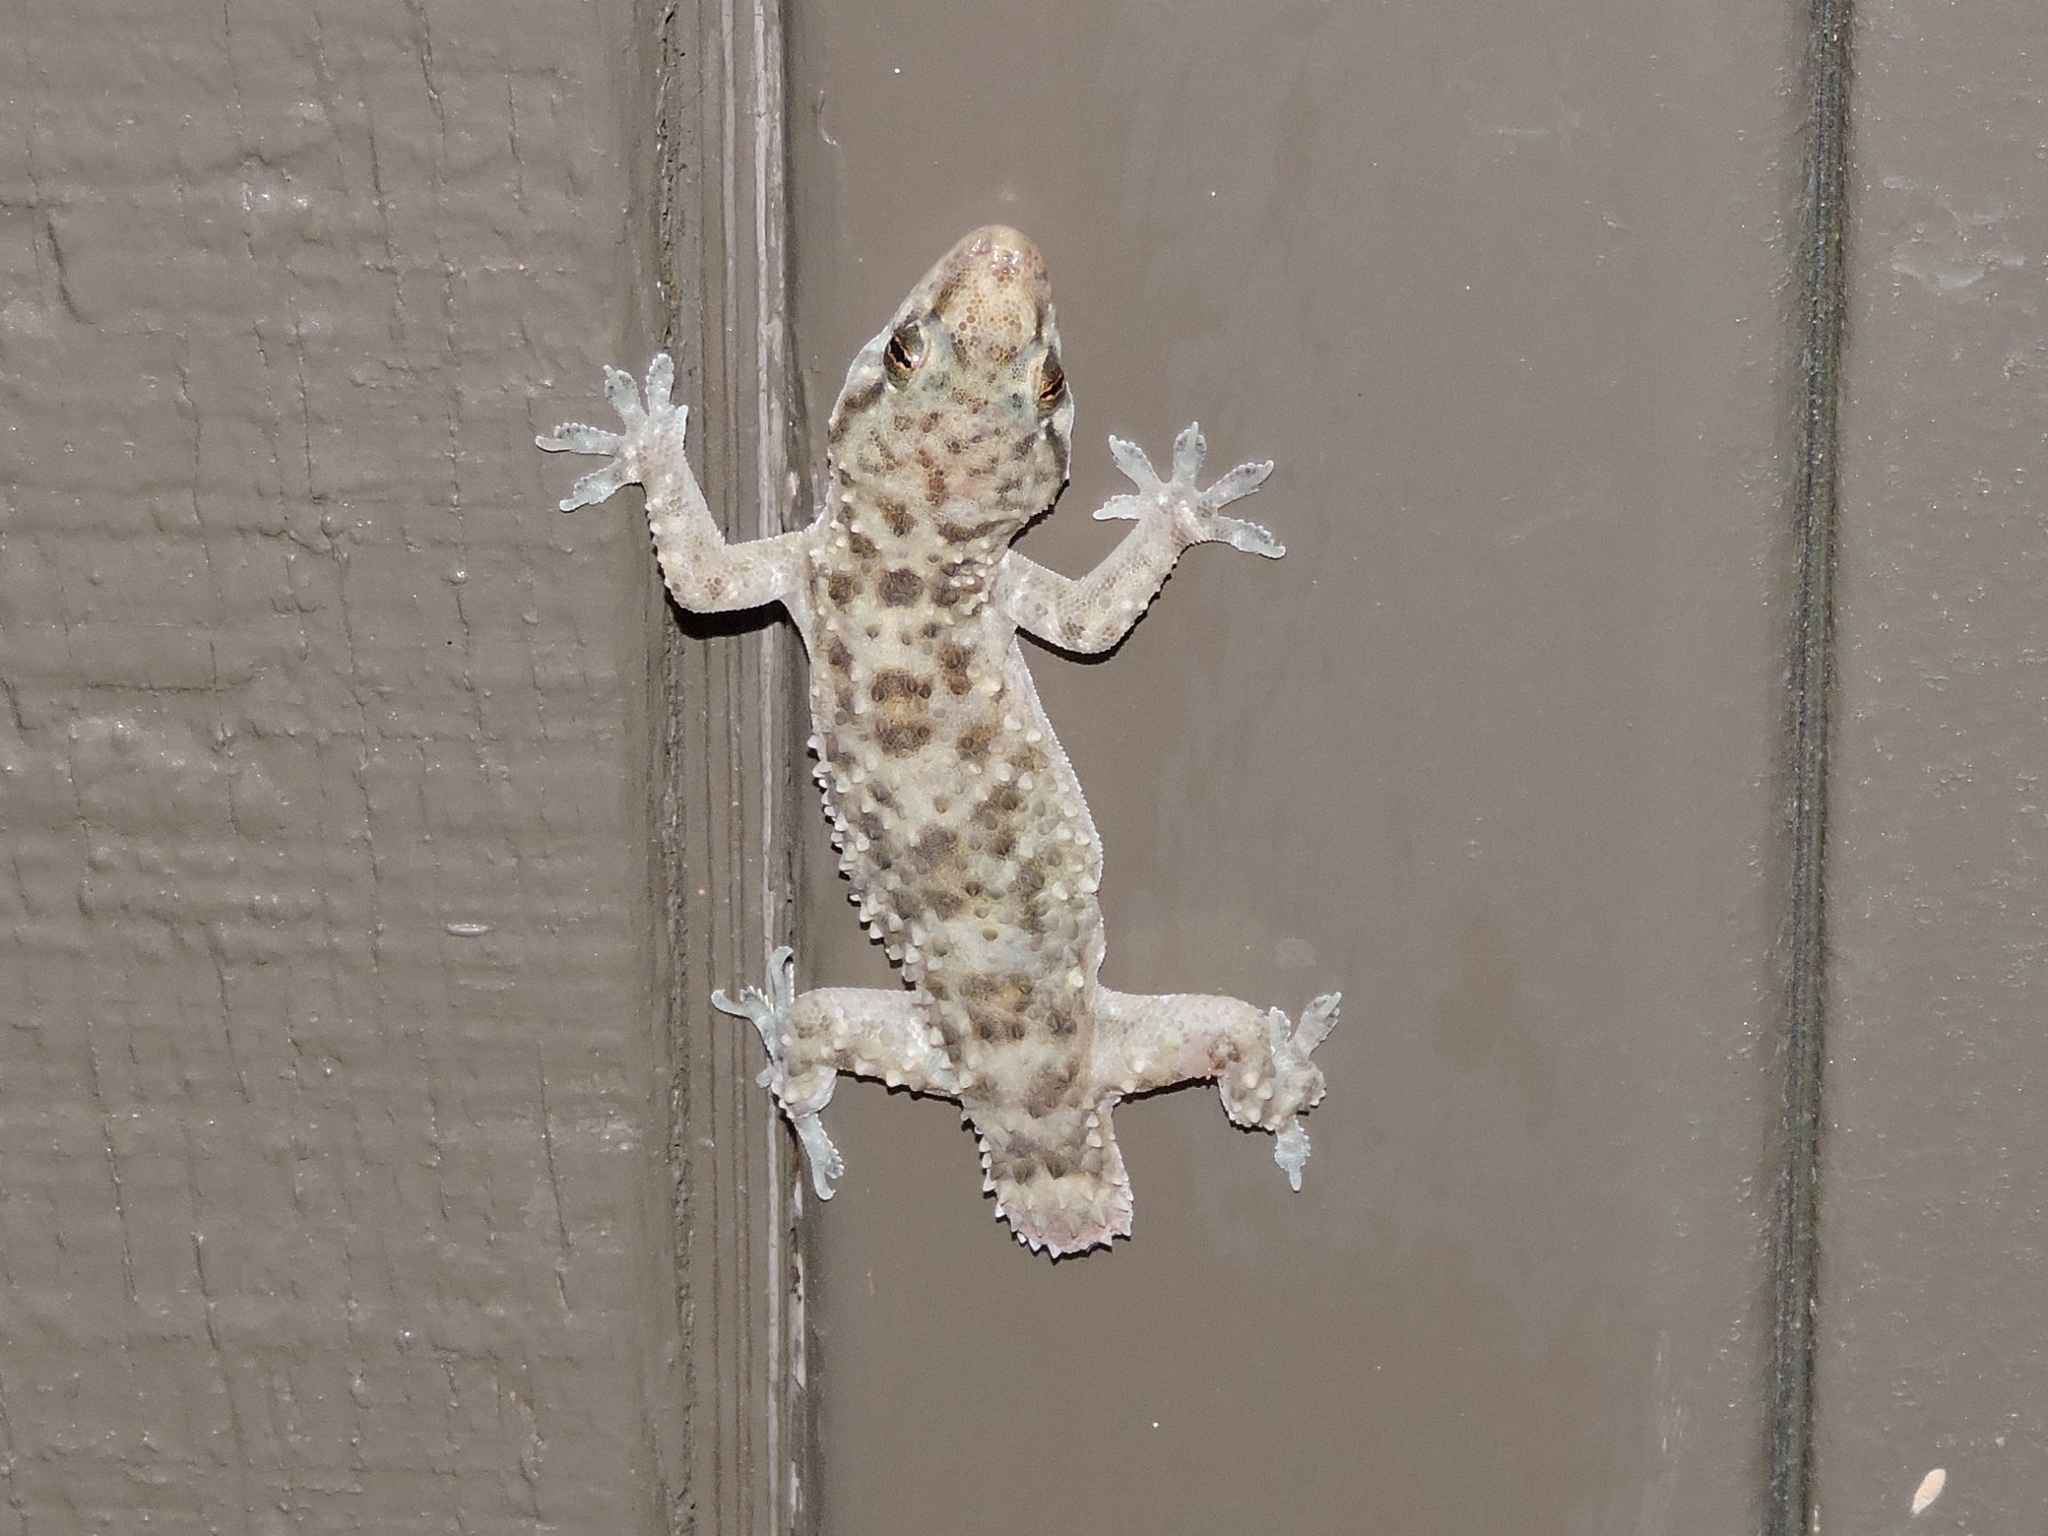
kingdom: Animalia
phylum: Chordata
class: Squamata
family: Gekkonidae
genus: Hemidactylus
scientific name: Hemidactylus turcicus
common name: Turkish gecko
